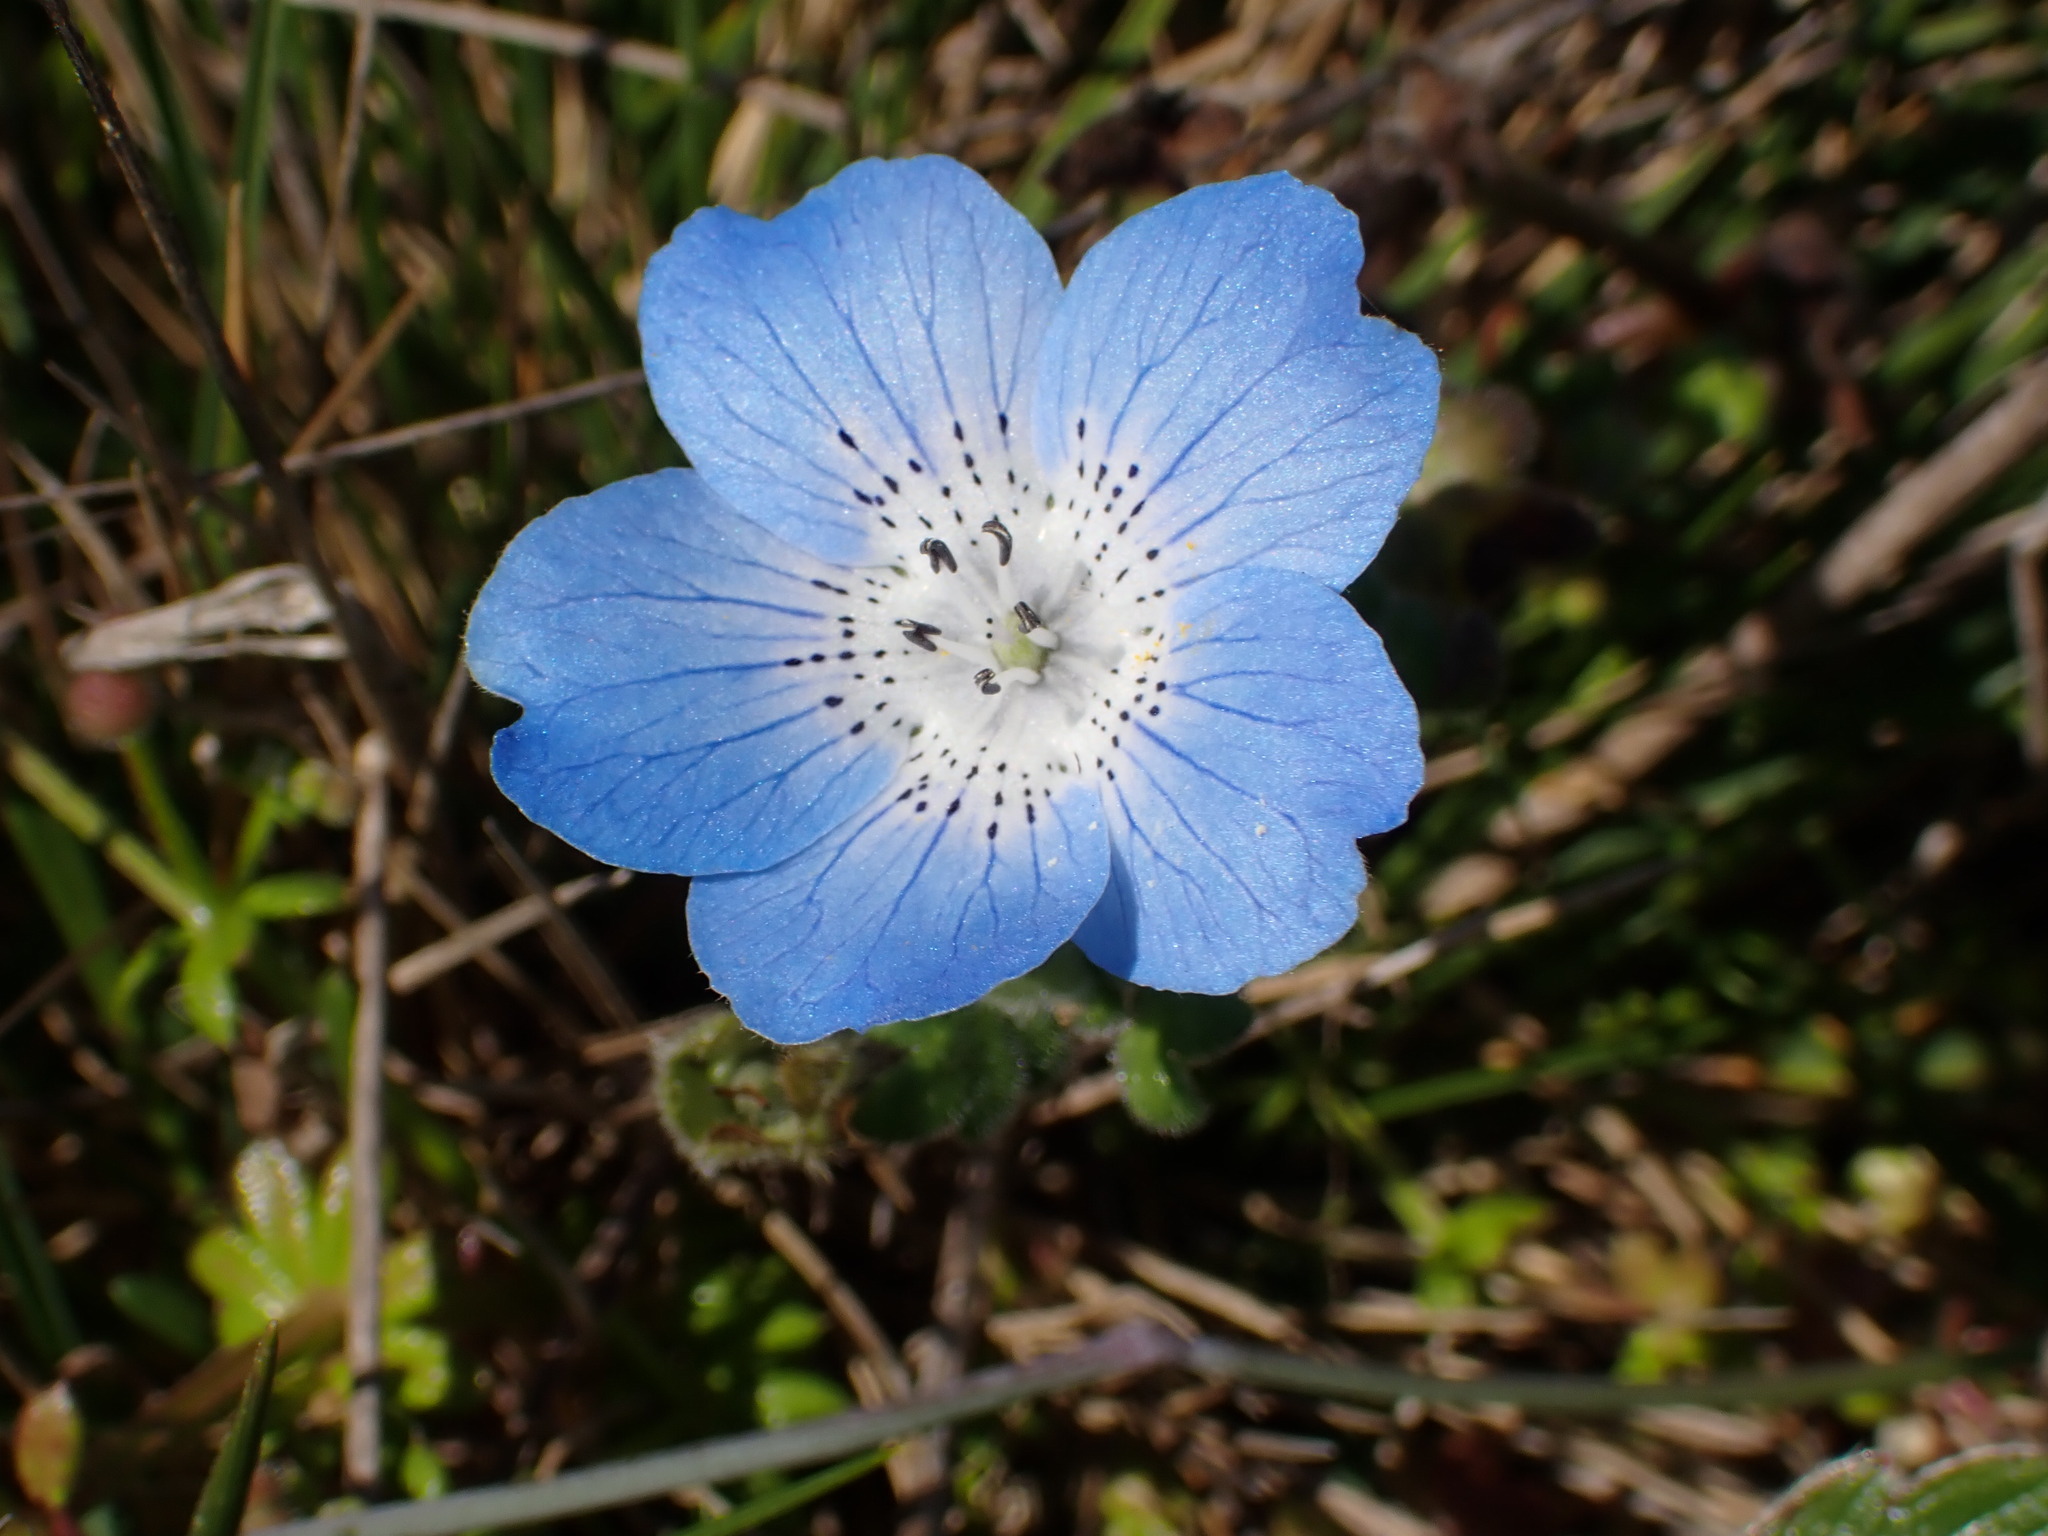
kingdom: Plantae
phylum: Tracheophyta
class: Magnoliopsida
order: Boraginales
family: Hydrophyllaceae
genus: Nemophila
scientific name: Nemophila menziesii
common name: Baby's-blue-eyes
